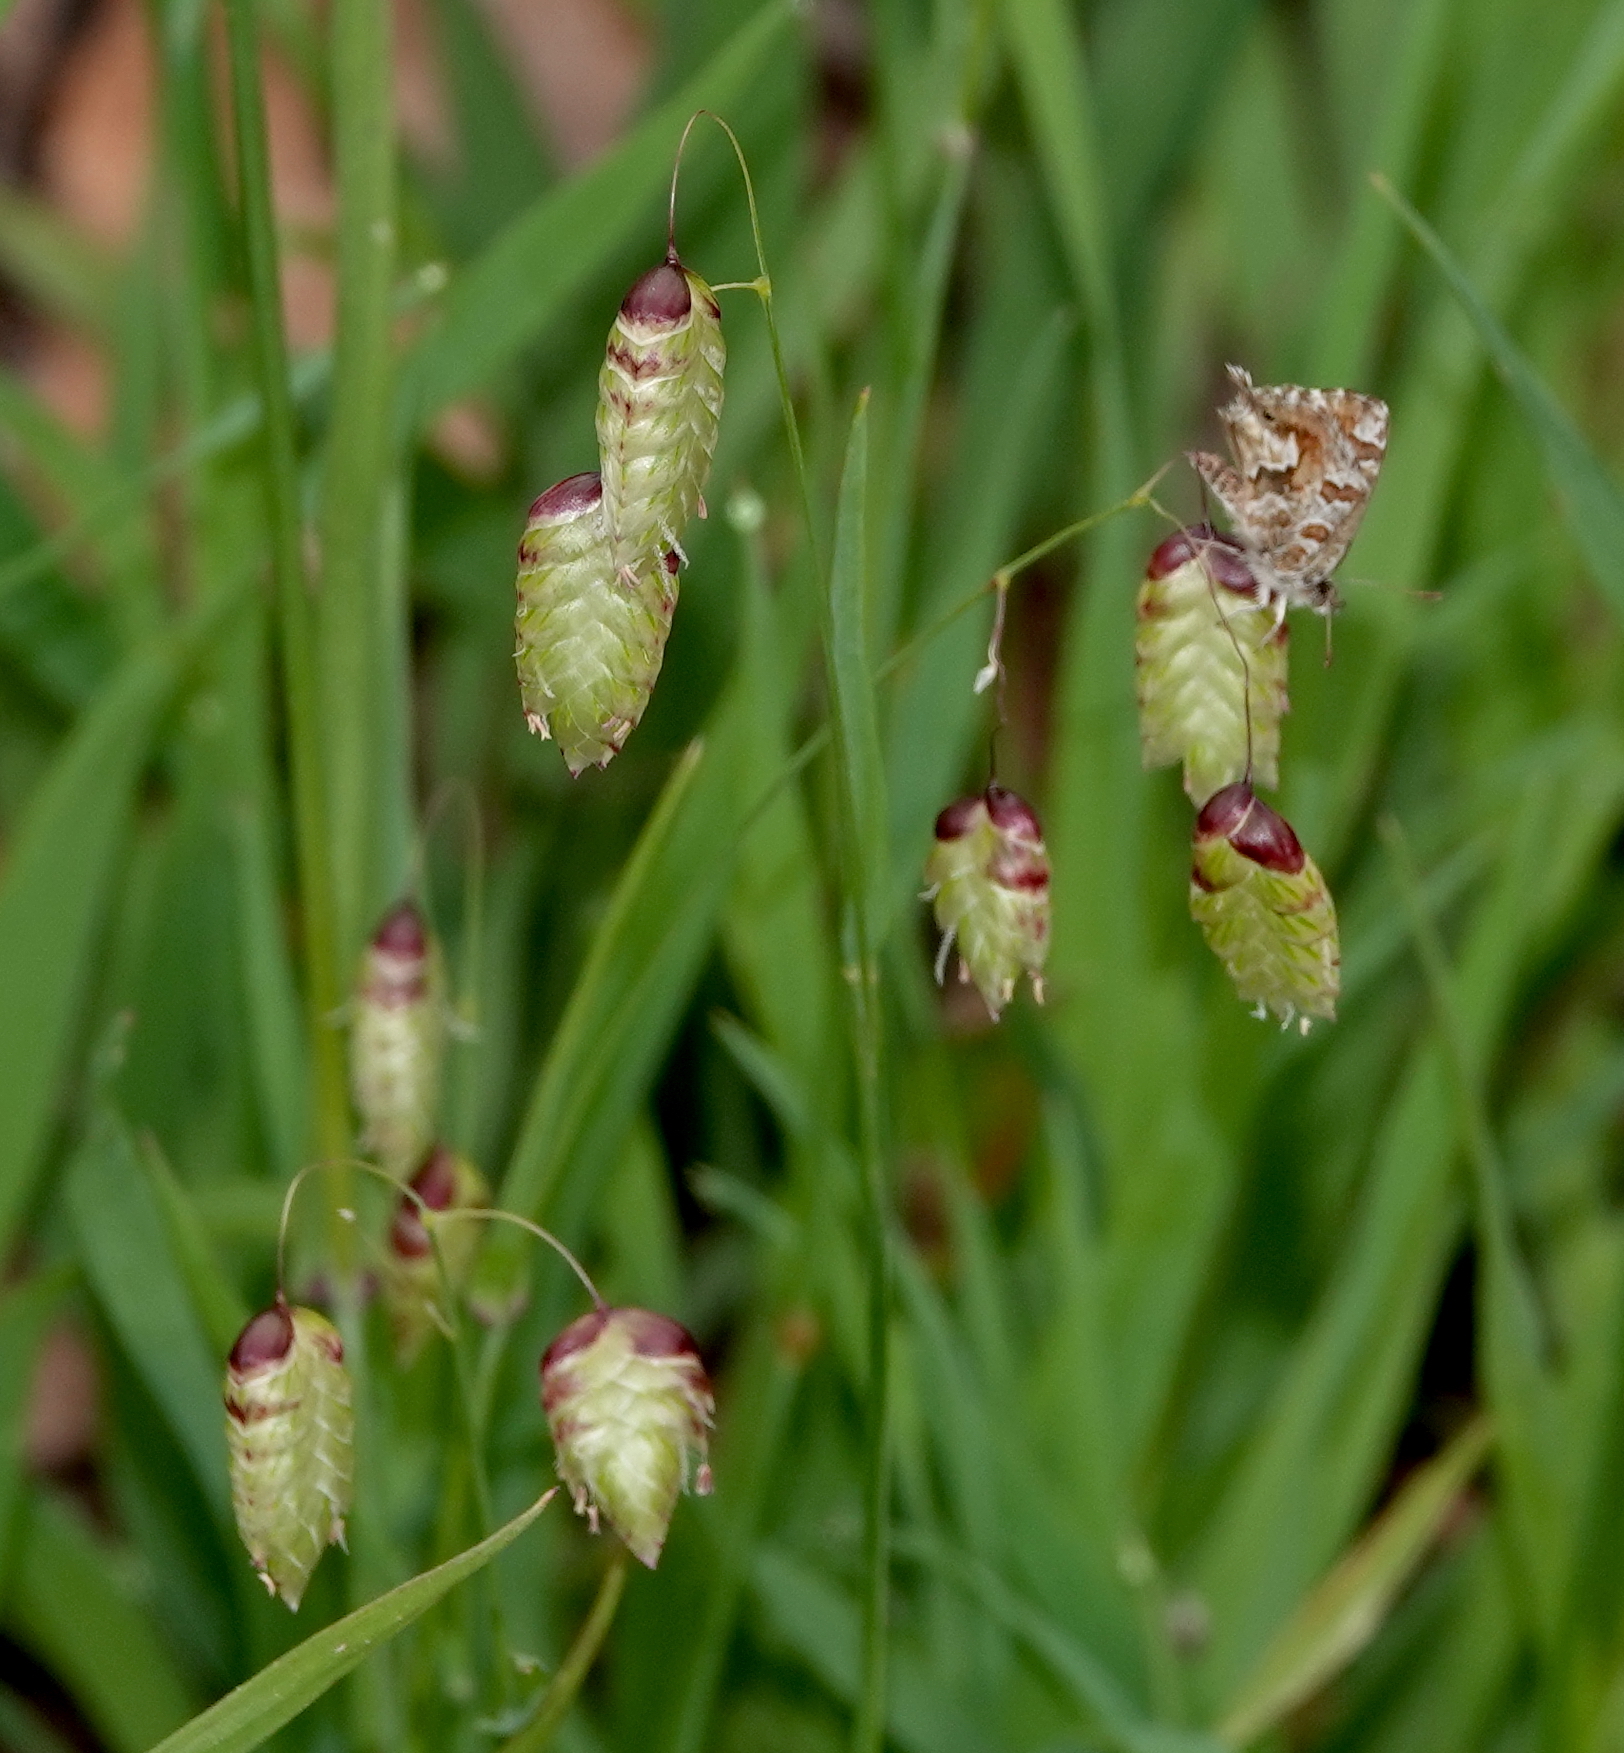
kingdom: Plantae
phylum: Tracheophyta
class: Liliopsida
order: Poales
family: Poaceae
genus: Briza
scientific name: Briza maxima
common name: Big quakinggrass
